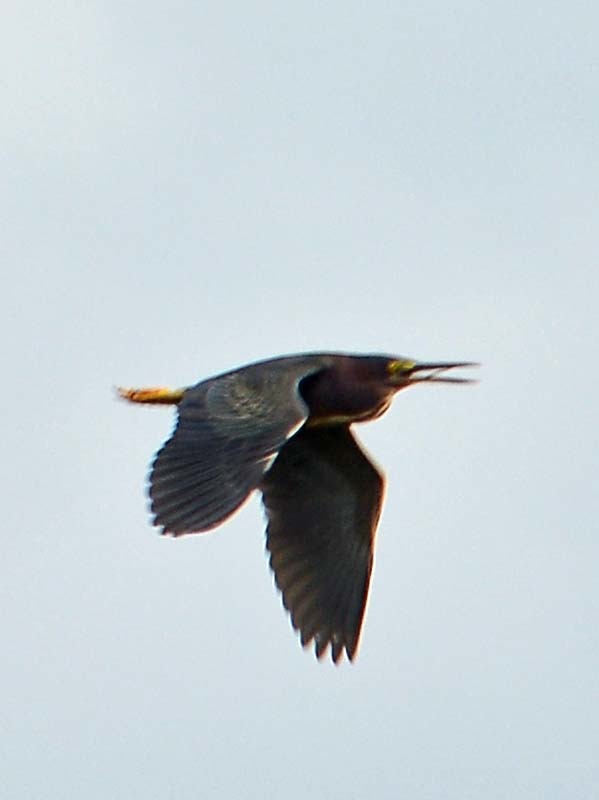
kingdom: Animalia
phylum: Chordata
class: Aves
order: Pelecaniformes
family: Ardeidae
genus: Butorides
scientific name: Butorides virescens
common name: Green heron
